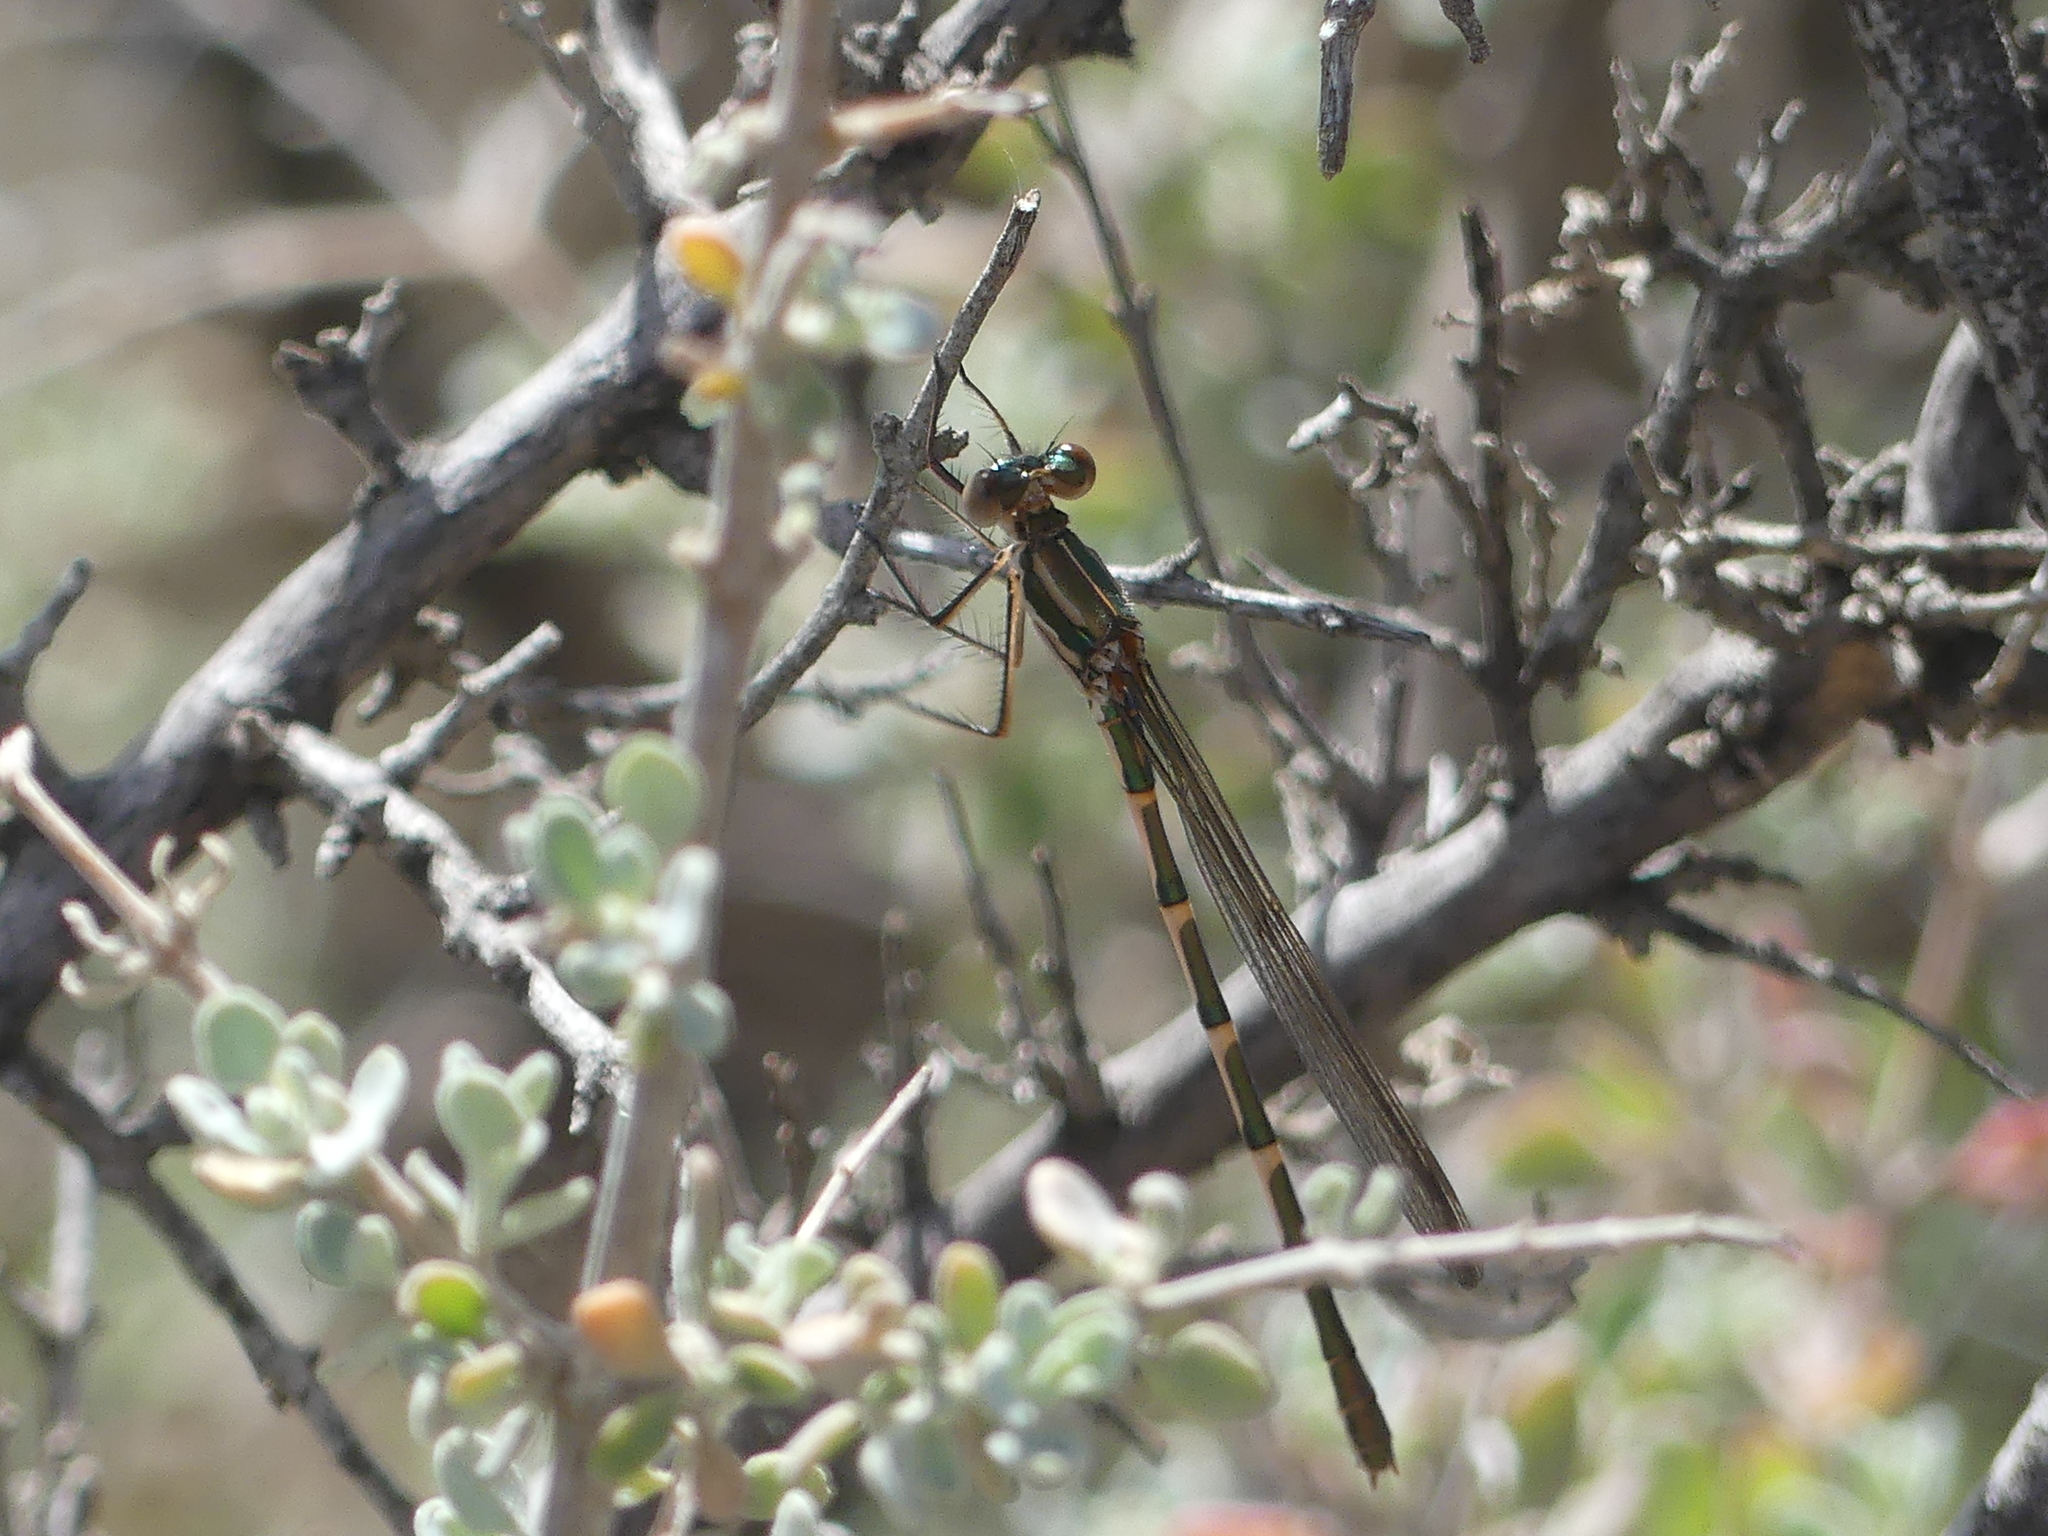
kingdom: Animalia
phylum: Arthropoda
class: Insecta
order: Odonata
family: Lestidae
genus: Austrolestes
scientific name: Austrolestes annulosus
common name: Blue ringtail
